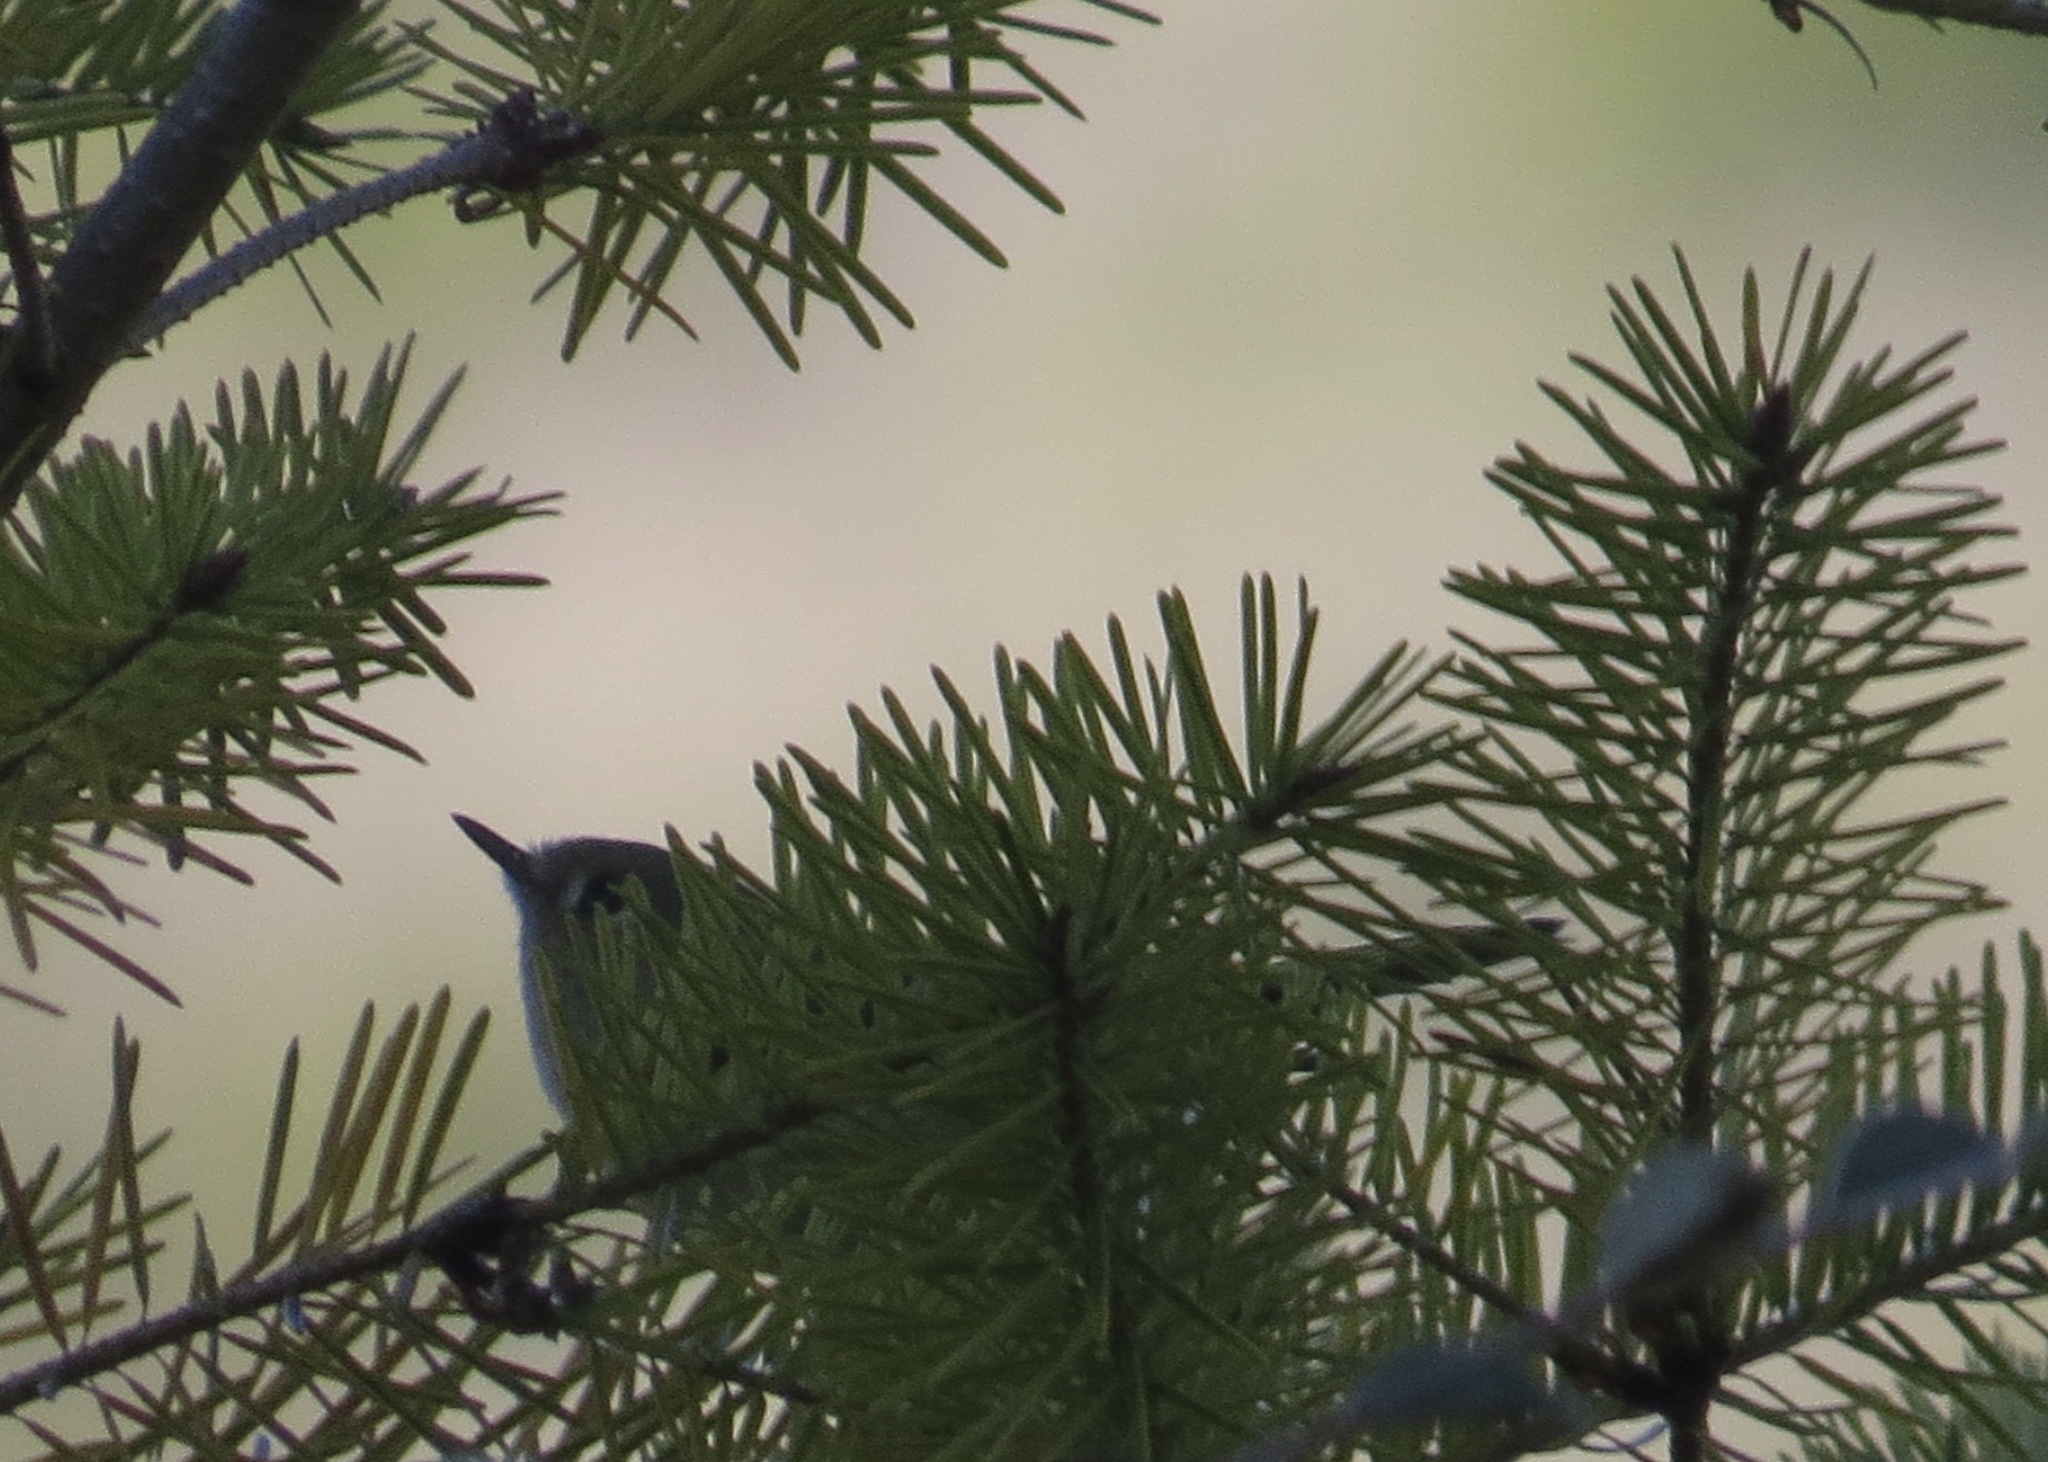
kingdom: Animalia
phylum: Chordata
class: Aves
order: Passeriformes
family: Regulidae
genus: Regulus
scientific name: Regulus calendula
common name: Ruby-crowned kinglet
